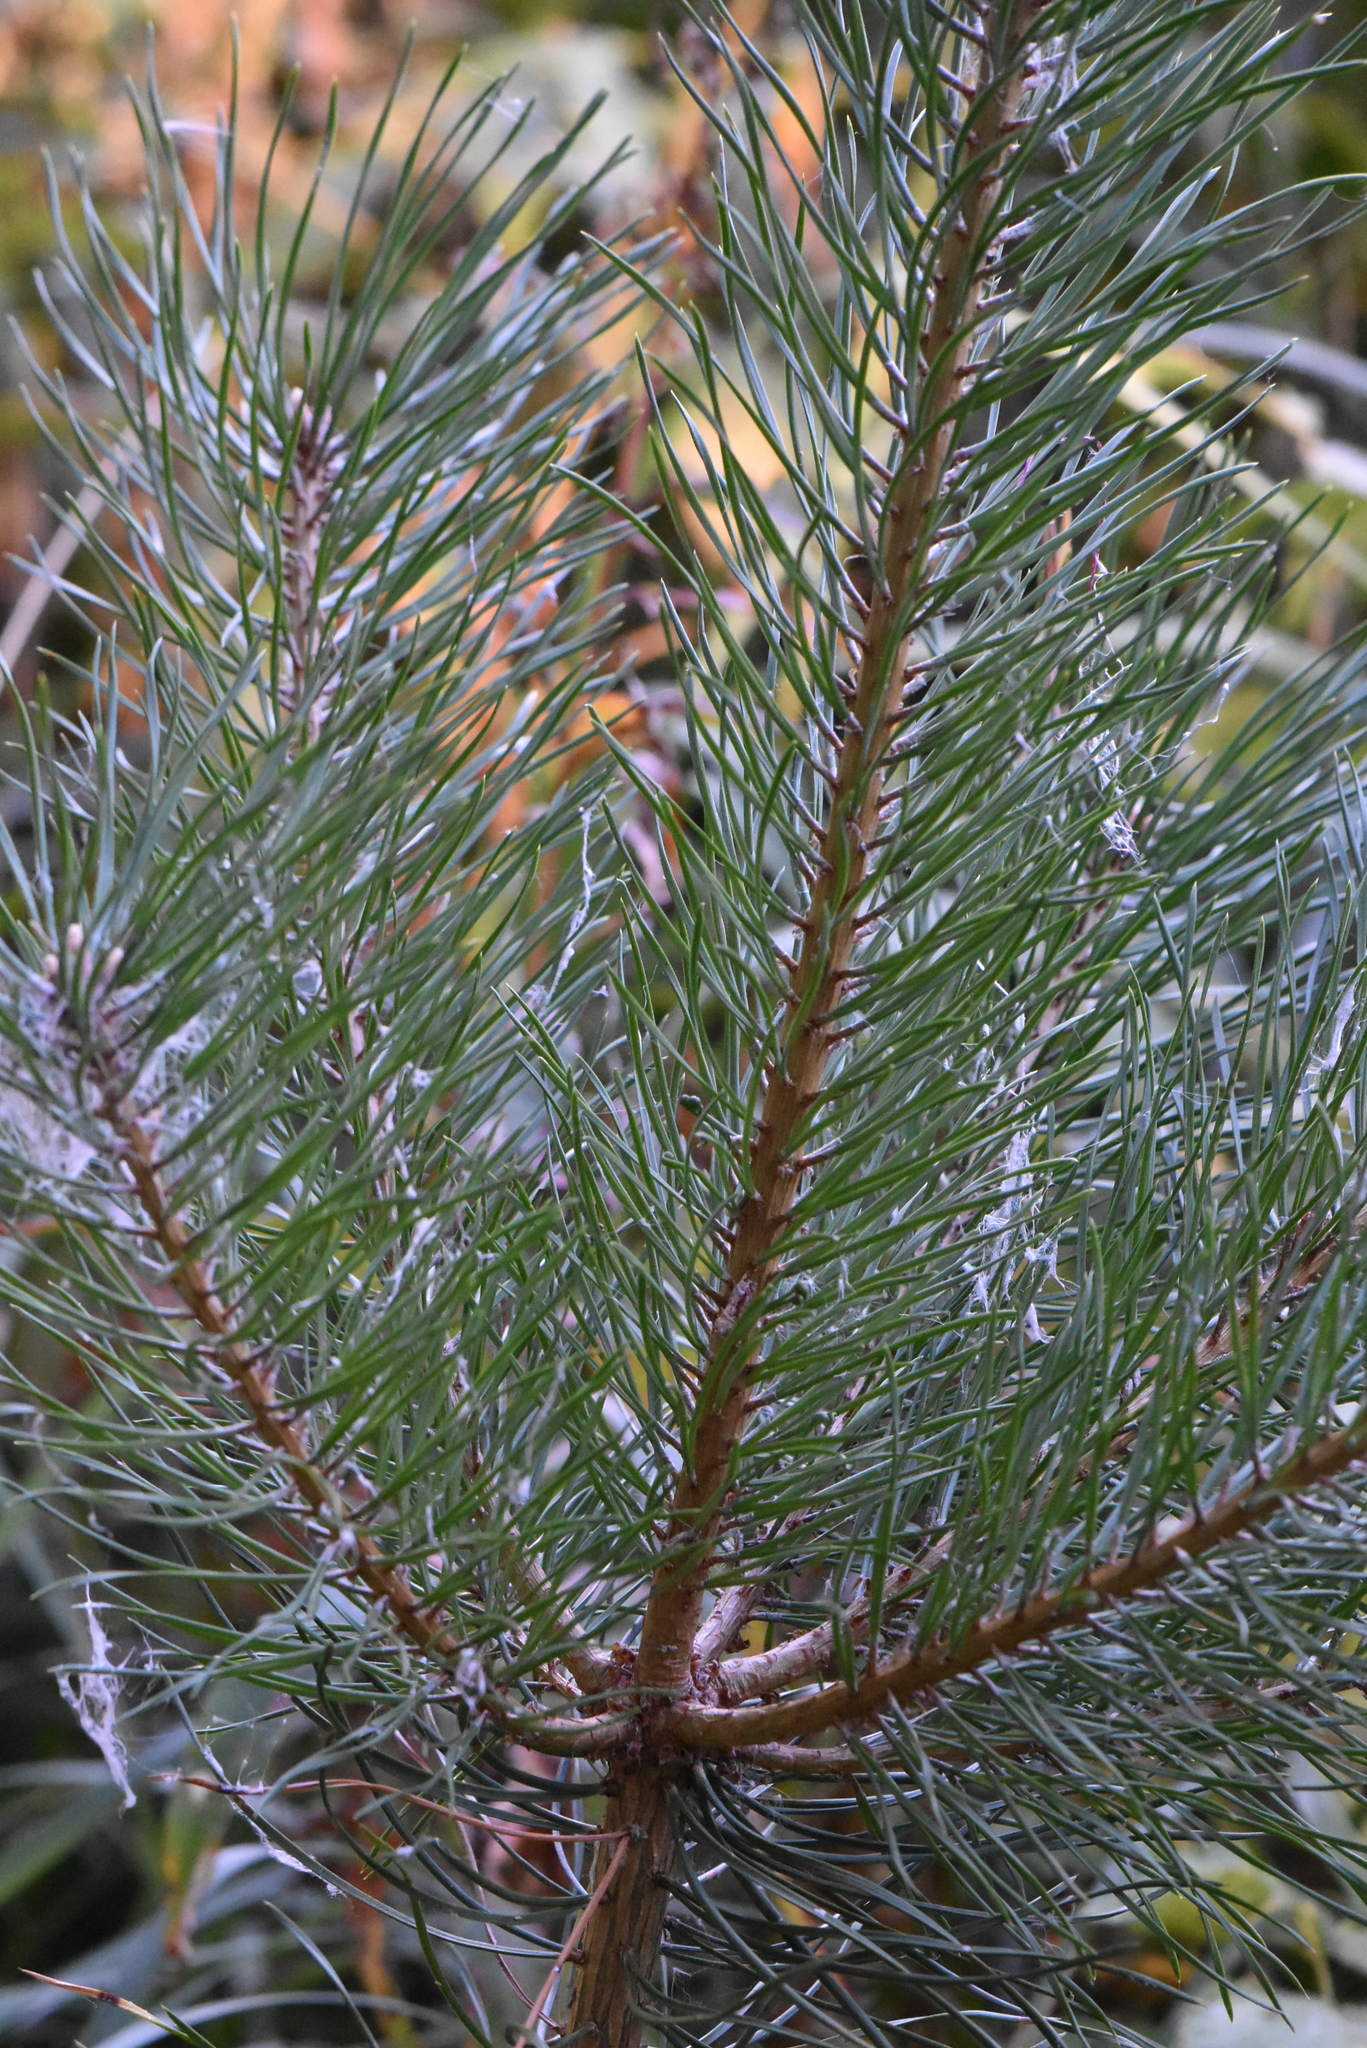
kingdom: Plantae
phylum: Tracheophyta
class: Pinopsida
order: Pinales
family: Pinaceae
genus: Pinus
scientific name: Pinus sylvestris
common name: Scots pine
